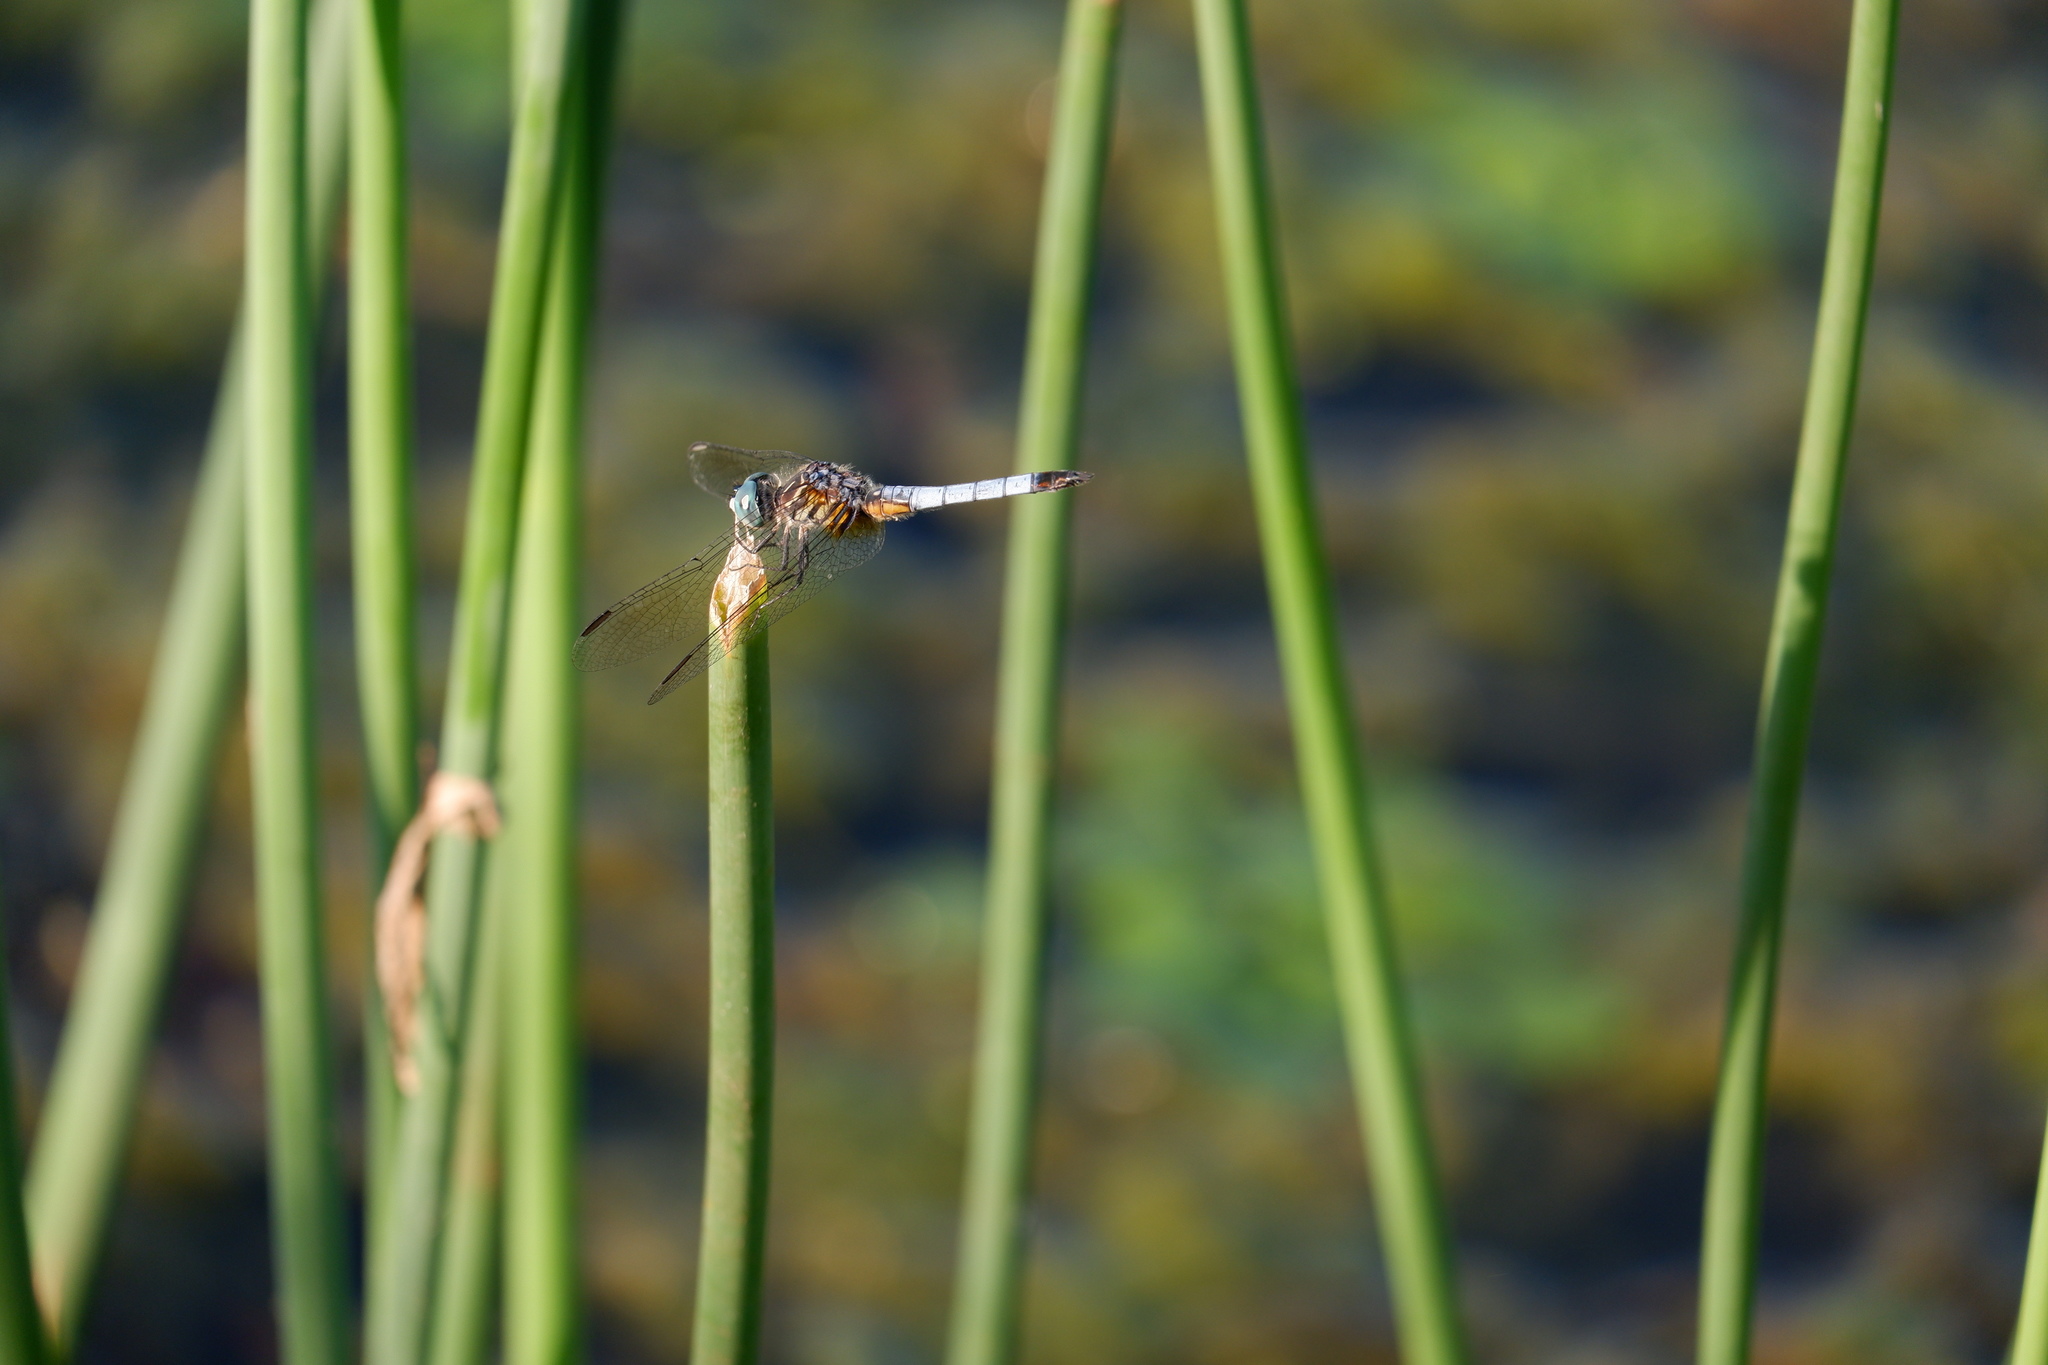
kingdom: Animalia
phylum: Arthropoda
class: Insecta
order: Odonata
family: Libellulidae
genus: Pachydiplax
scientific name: Pachydiplax longipennis
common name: Blue dasher
